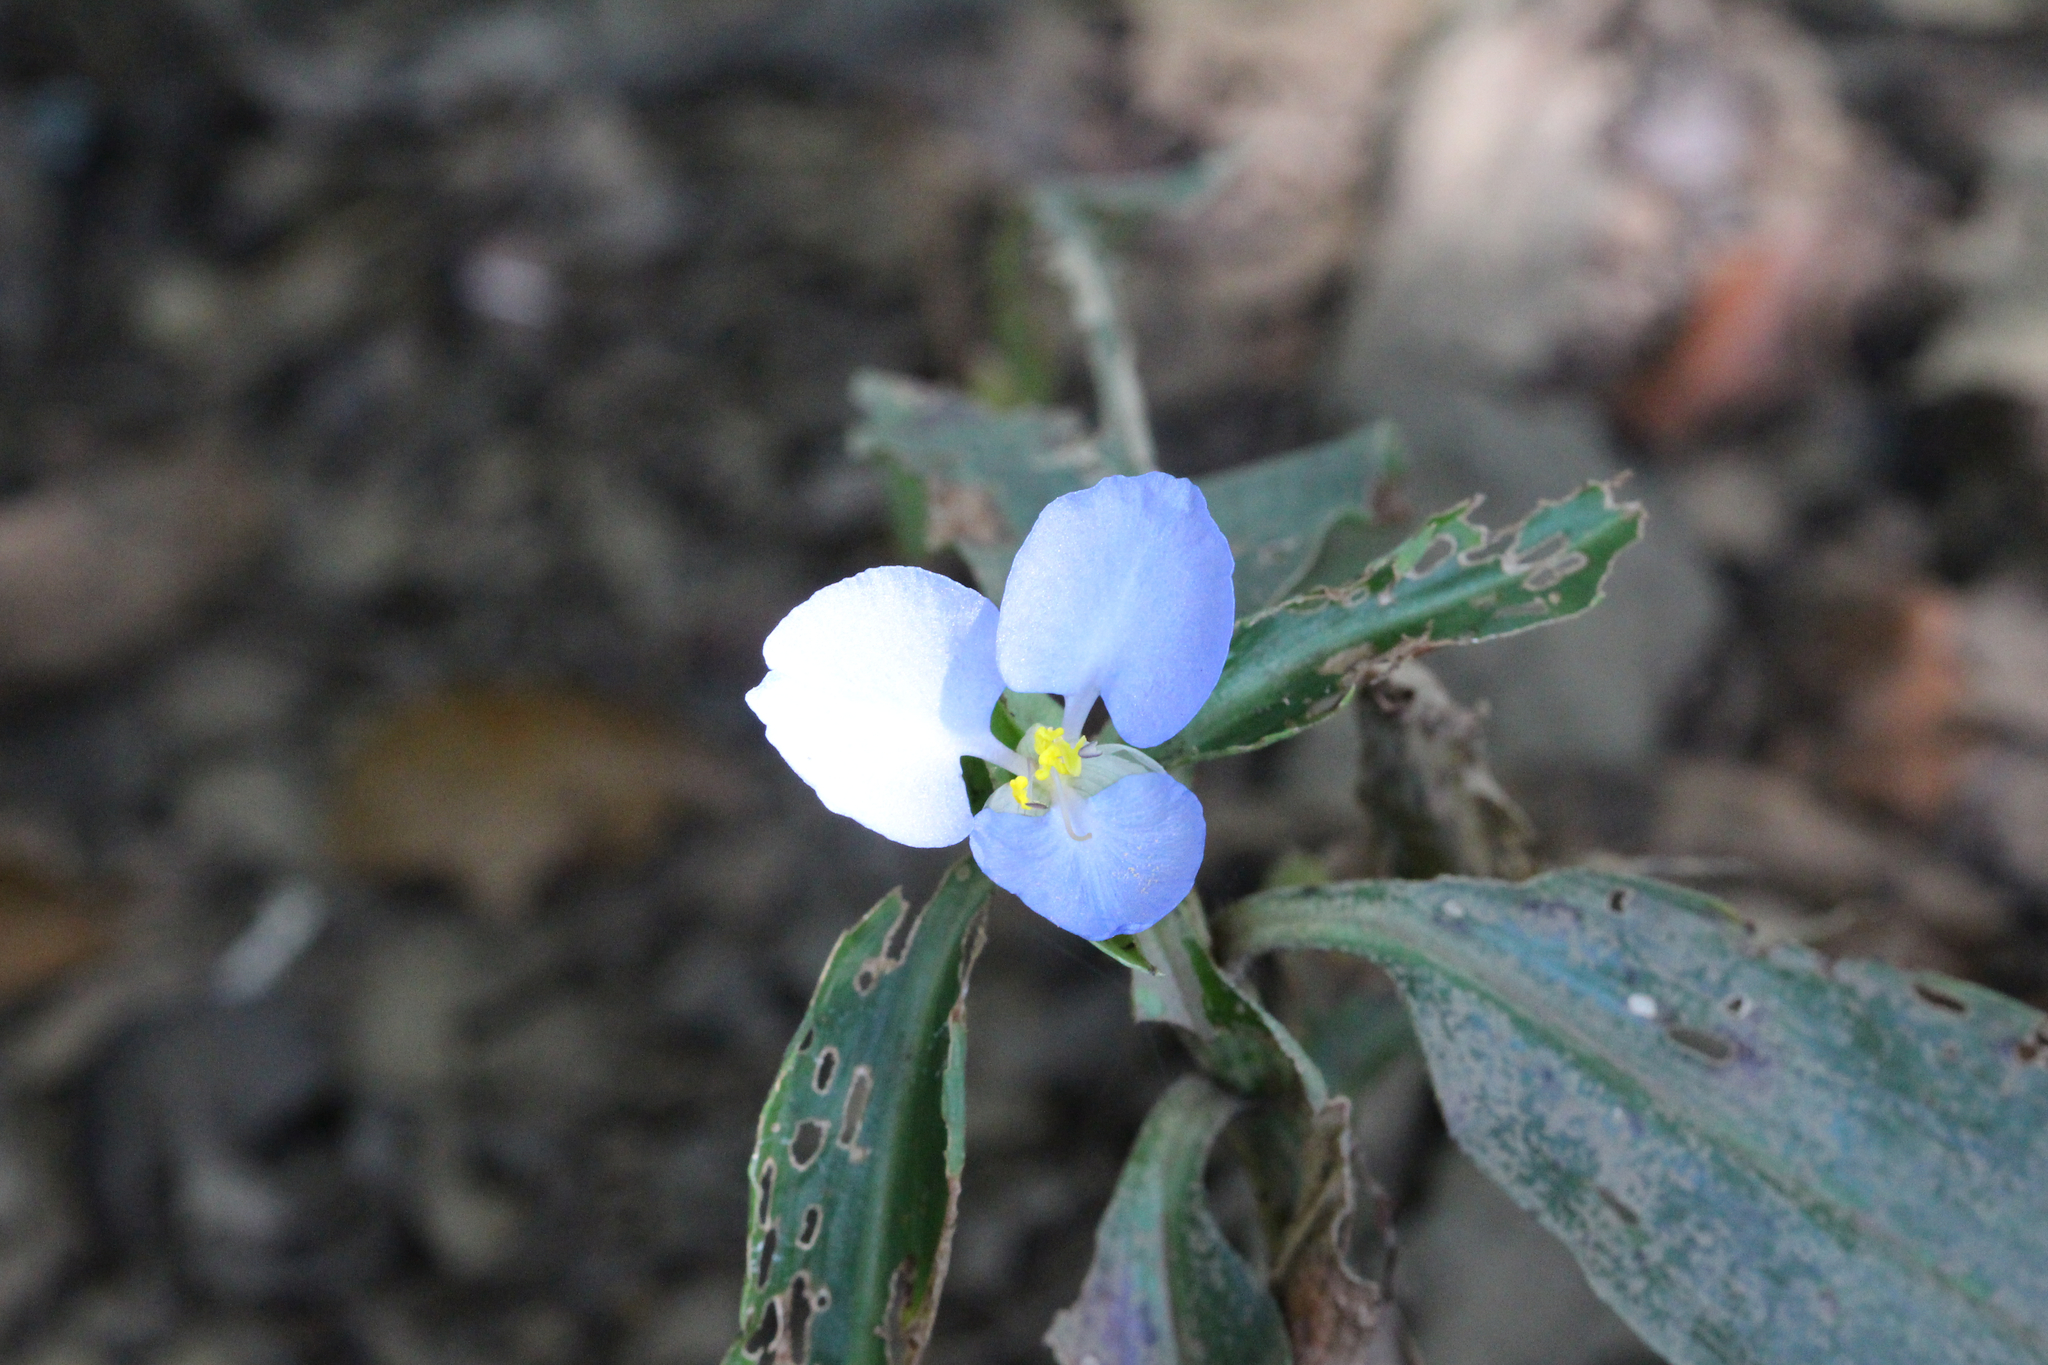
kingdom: Plantae
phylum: Tracheophyta
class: Liliopsida
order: Commelinales
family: Commelinaceae
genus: Commelina
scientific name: Commelina virginica
